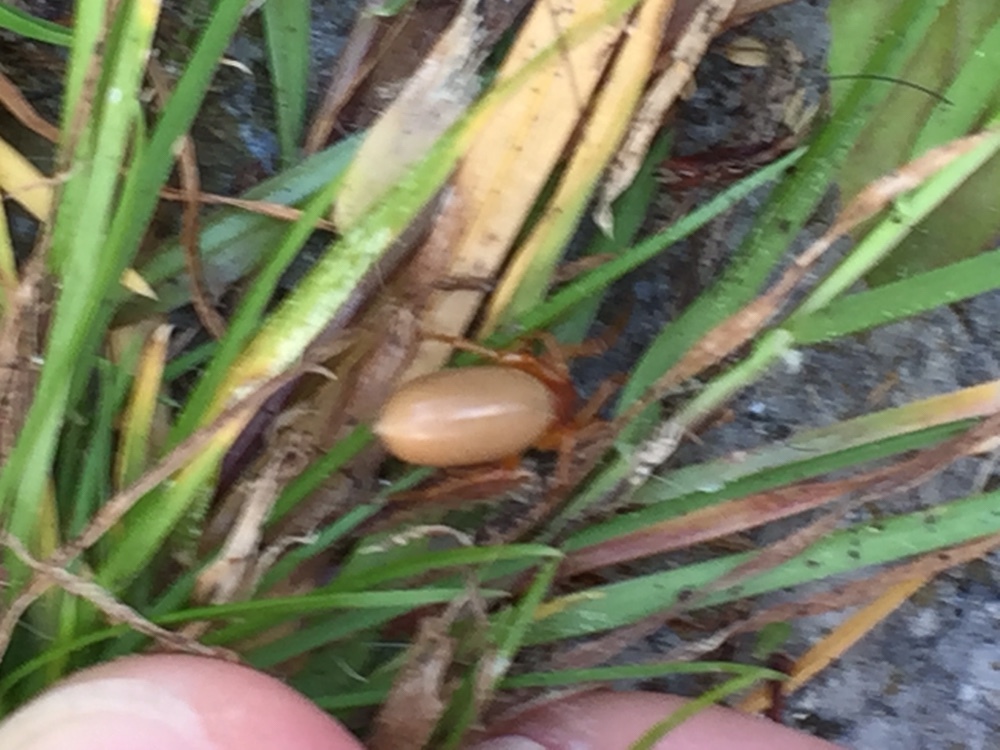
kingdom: Animalia
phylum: Arthropoda
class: Arachnida
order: Araneae
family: Dysderidae
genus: Dysdera
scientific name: Dysdera crocata
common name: Woodlouse spider
